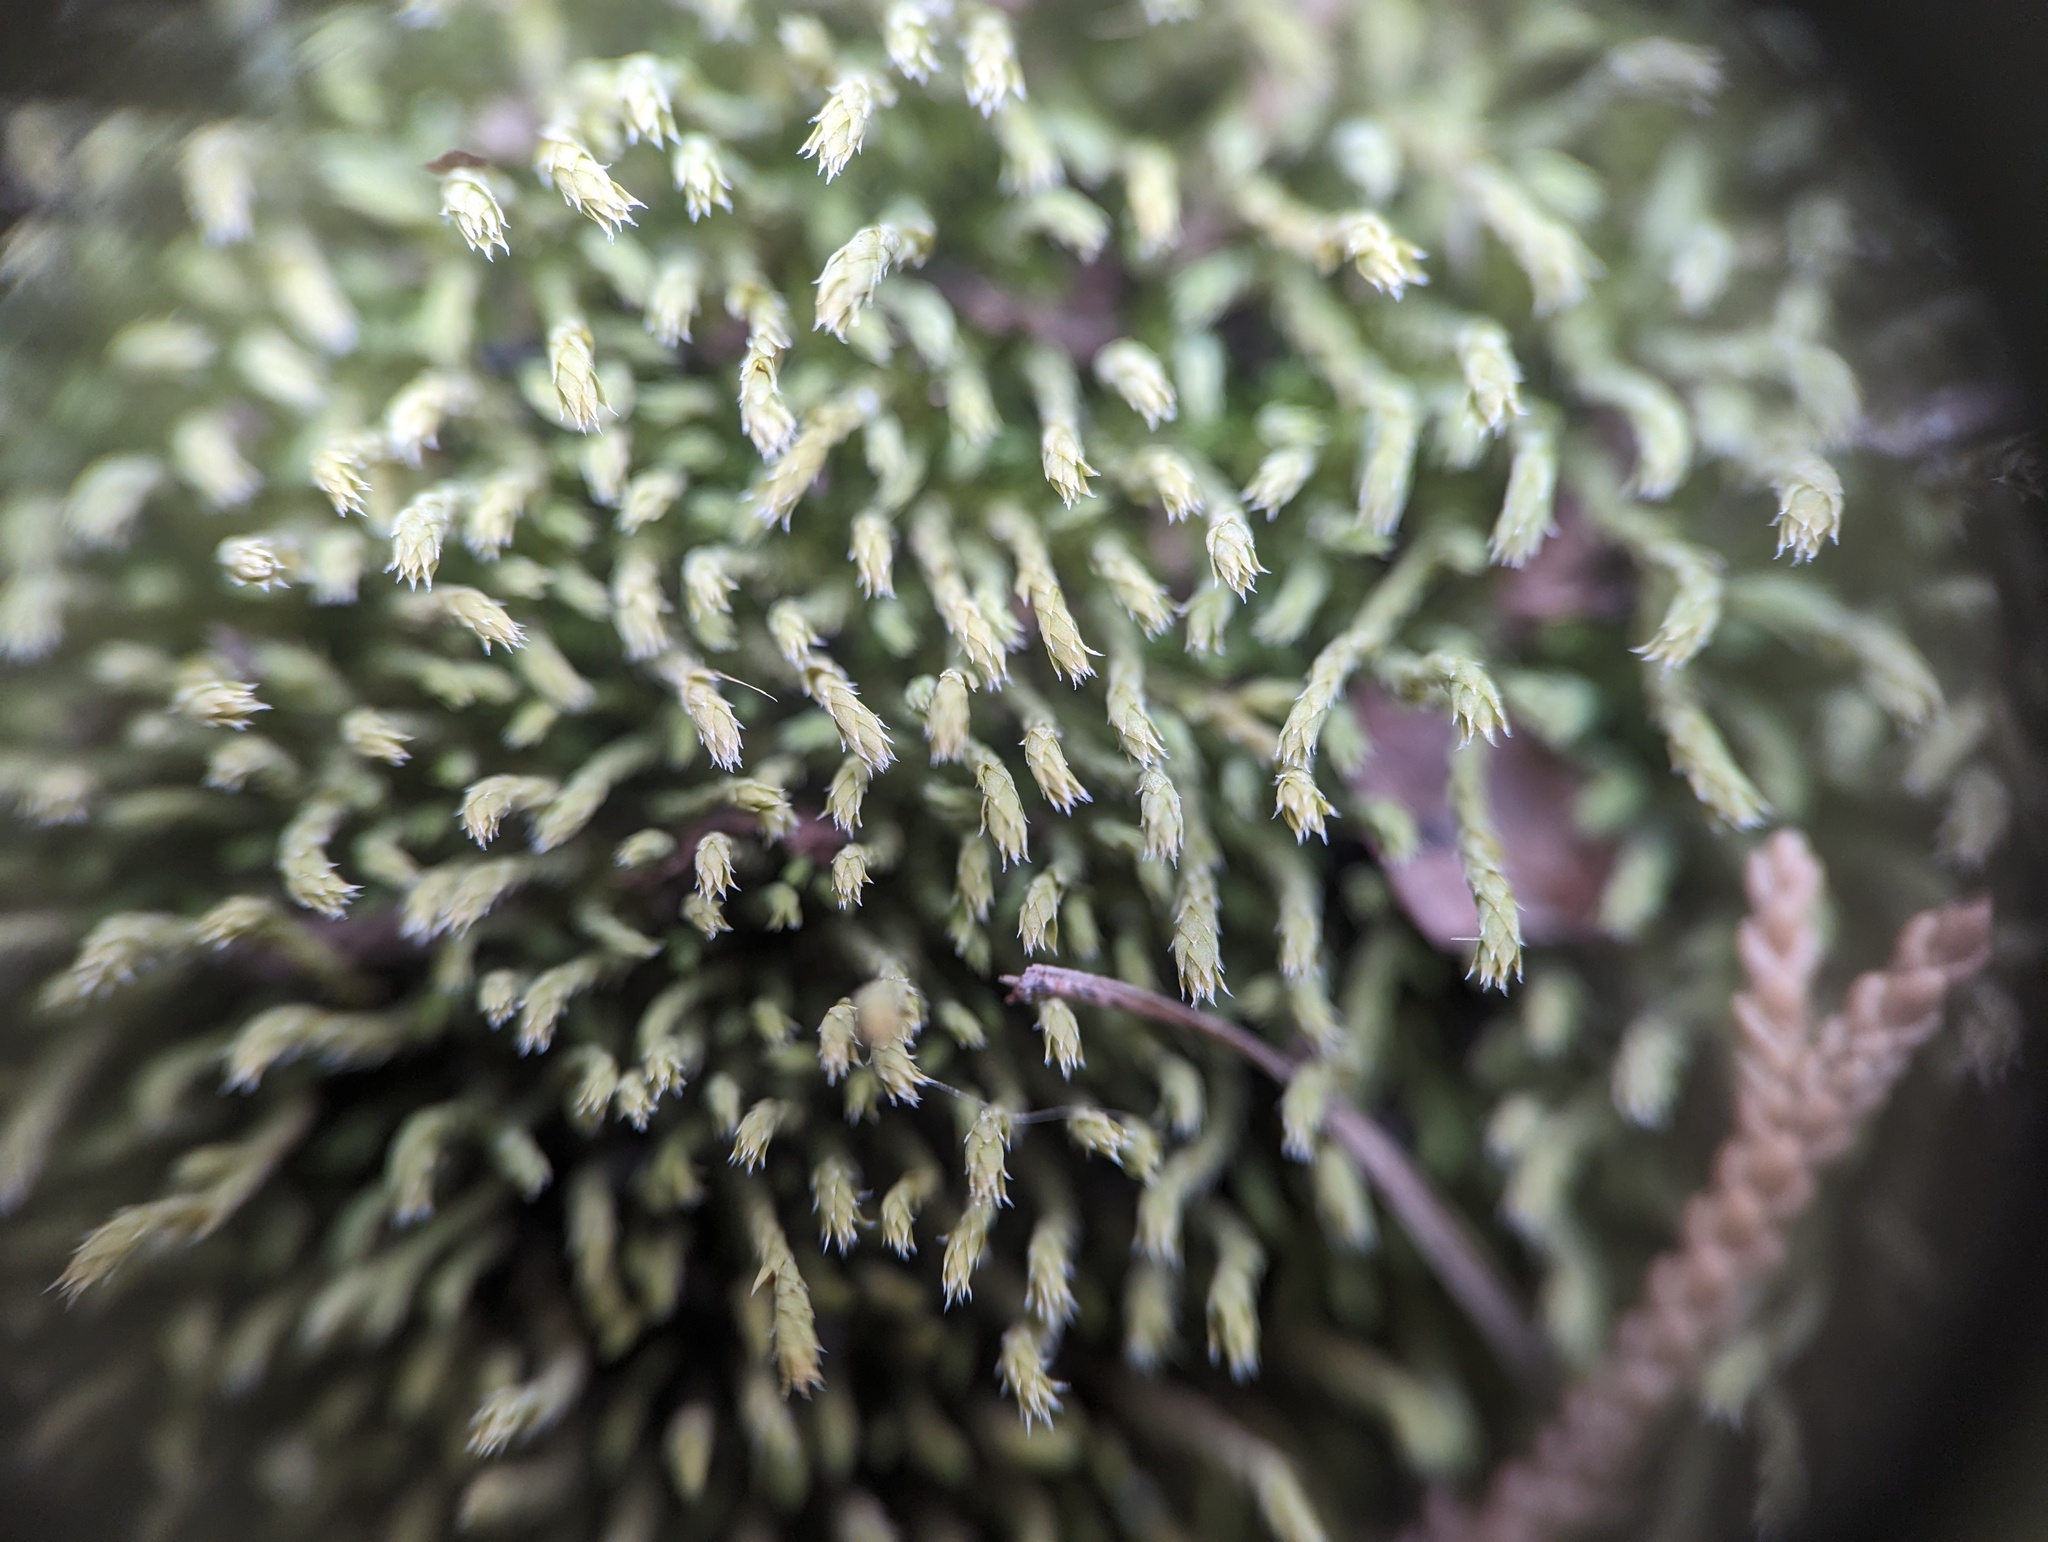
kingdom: Plantae
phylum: Bryophyta
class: Bryopsida
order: Hedwigiales
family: Hedwigiaceae
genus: Hedwigia
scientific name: Hedwigia ciliata
